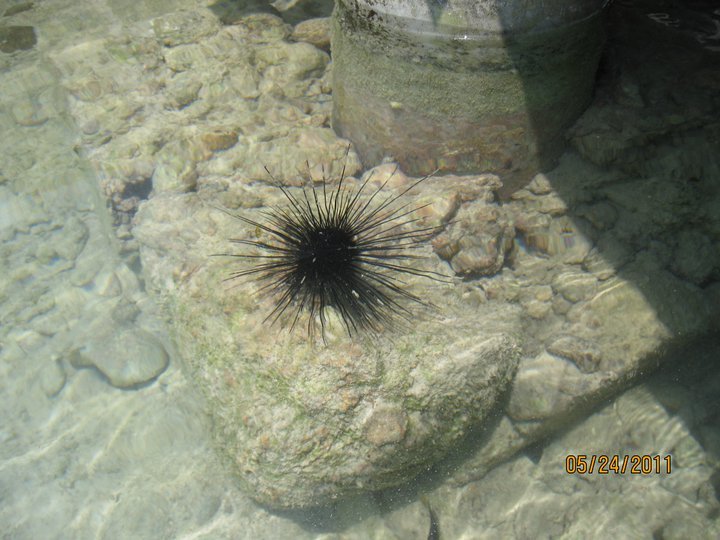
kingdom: Animalia
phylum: Echinodermata
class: Echinoidea
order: Diadematoida
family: Diadematidae
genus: Diadema
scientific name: Diadema antillarum
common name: Spiny urchin
